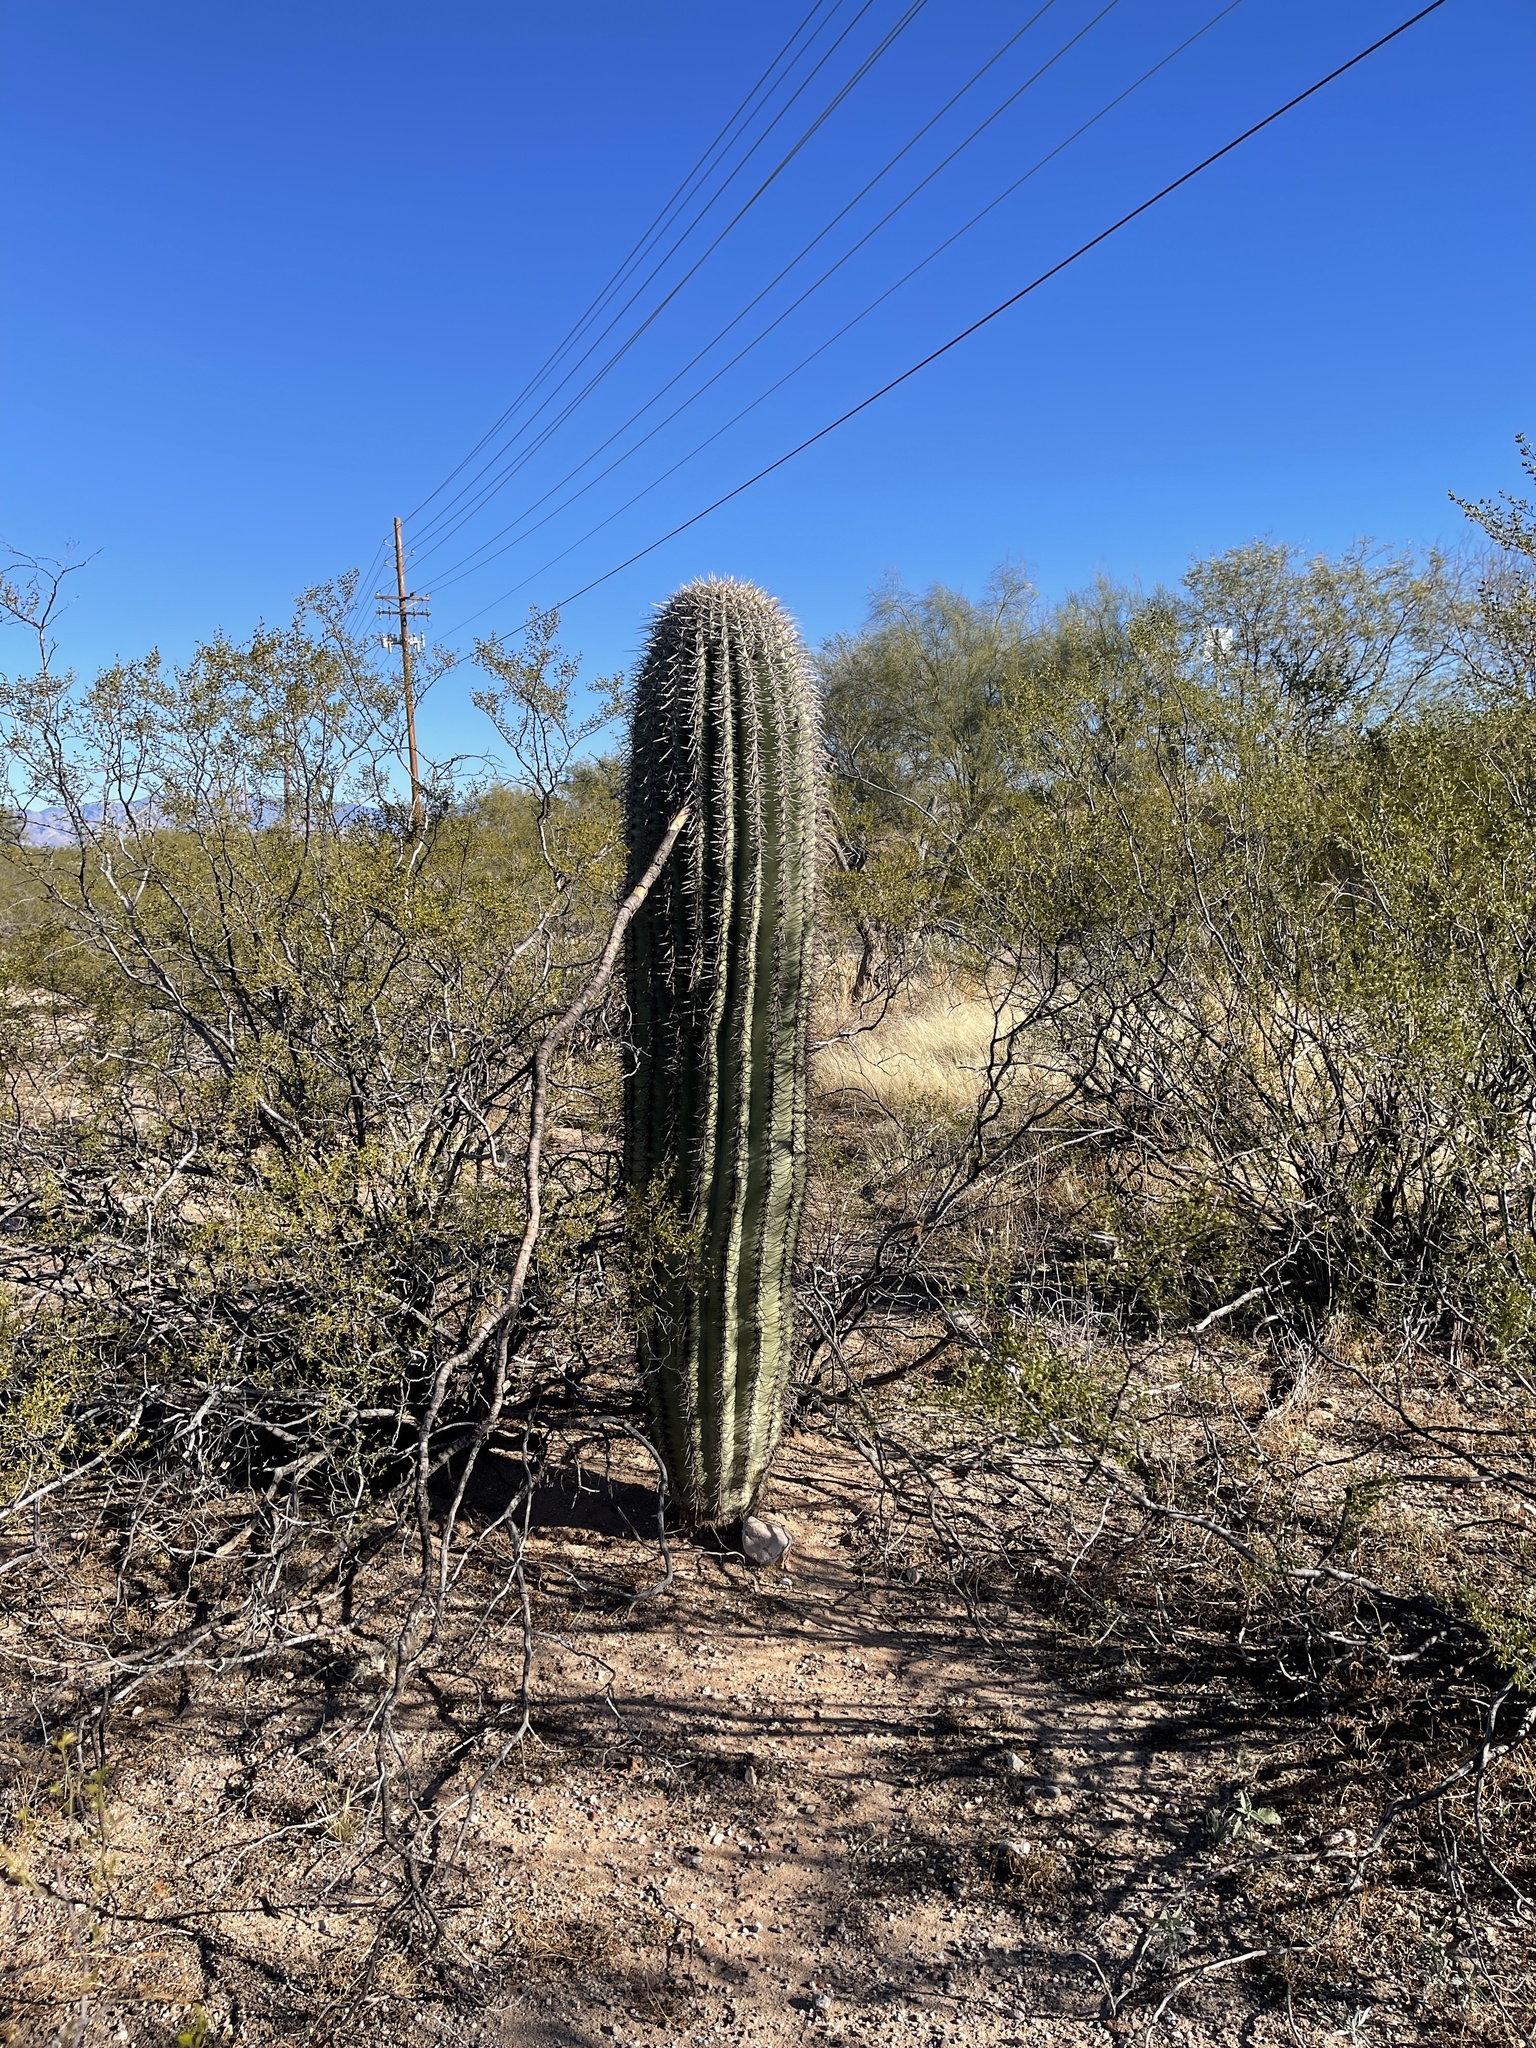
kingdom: Plantae
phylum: Tracheophyta
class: Magnoliopsida
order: Caryophyllales
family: Cactaceae
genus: Carnegiea
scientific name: Carnegiea gigantea
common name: Saguaro
